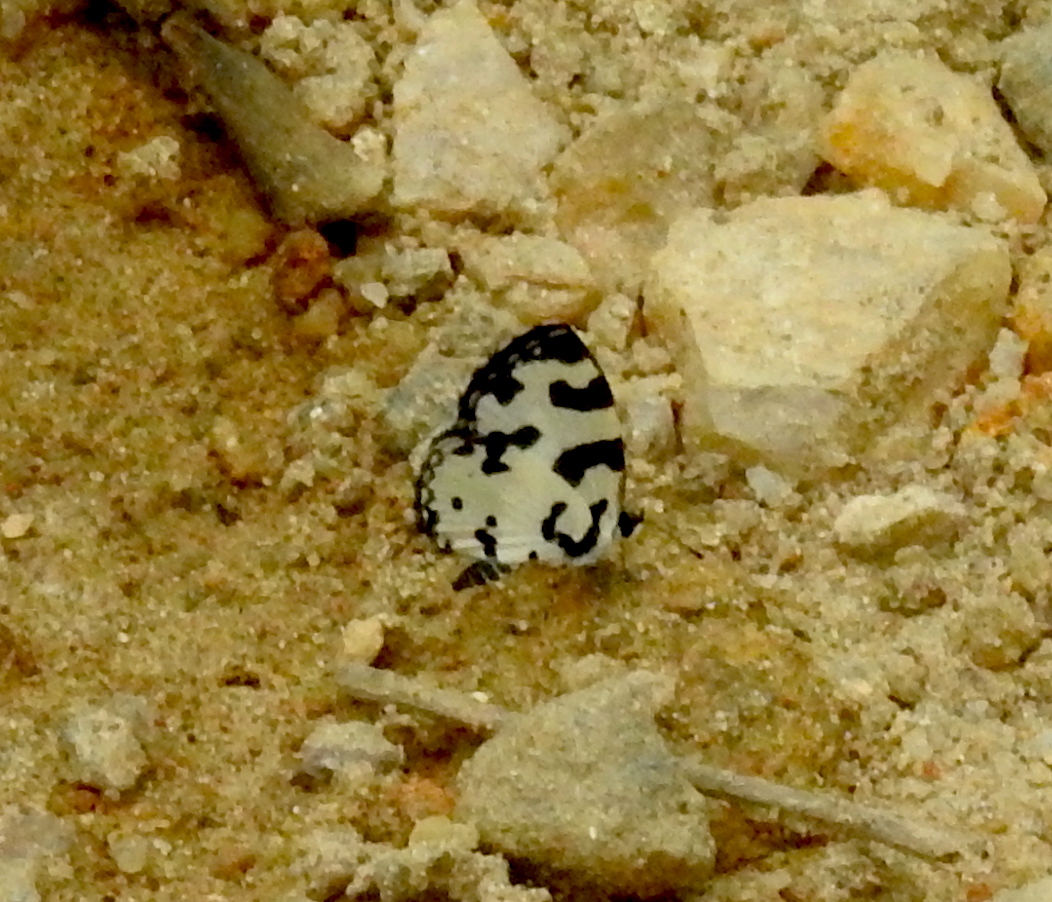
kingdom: Animalia
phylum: Arthropoda
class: Insecta
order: Lepidoptera
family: Lycaenidae
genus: Caleta
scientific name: Caleta decidia
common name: Angled pierrot
